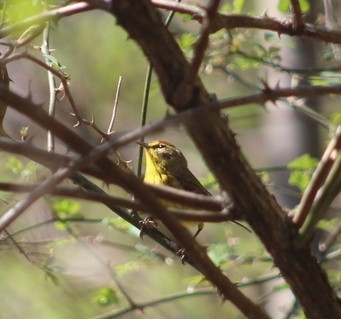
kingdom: Animalia
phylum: Chordata
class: Aves
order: Passeriformes
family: Parulidae
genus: Setophaga
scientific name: Setophaga palmarum
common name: Palm warbler
